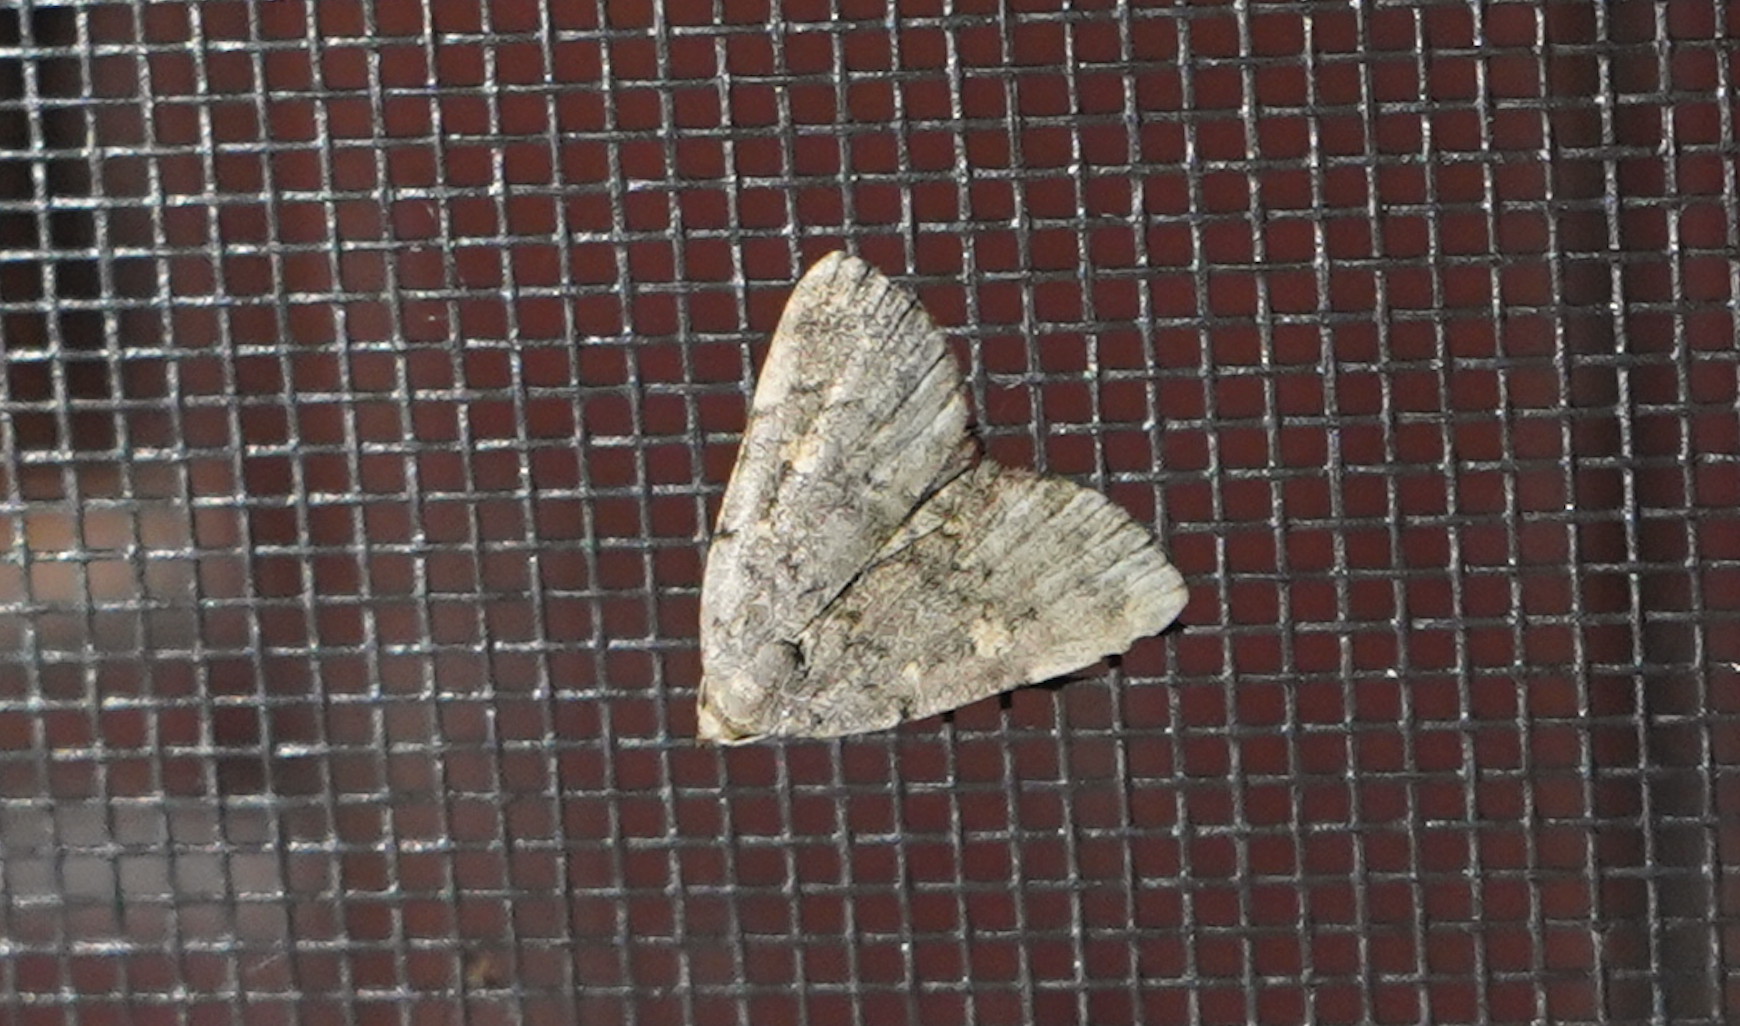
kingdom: Animalia
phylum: Arthropoda
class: Insecta
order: Lepidoptera
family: Erebidae
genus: Idia
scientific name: Idia aemula
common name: Common idia moth
